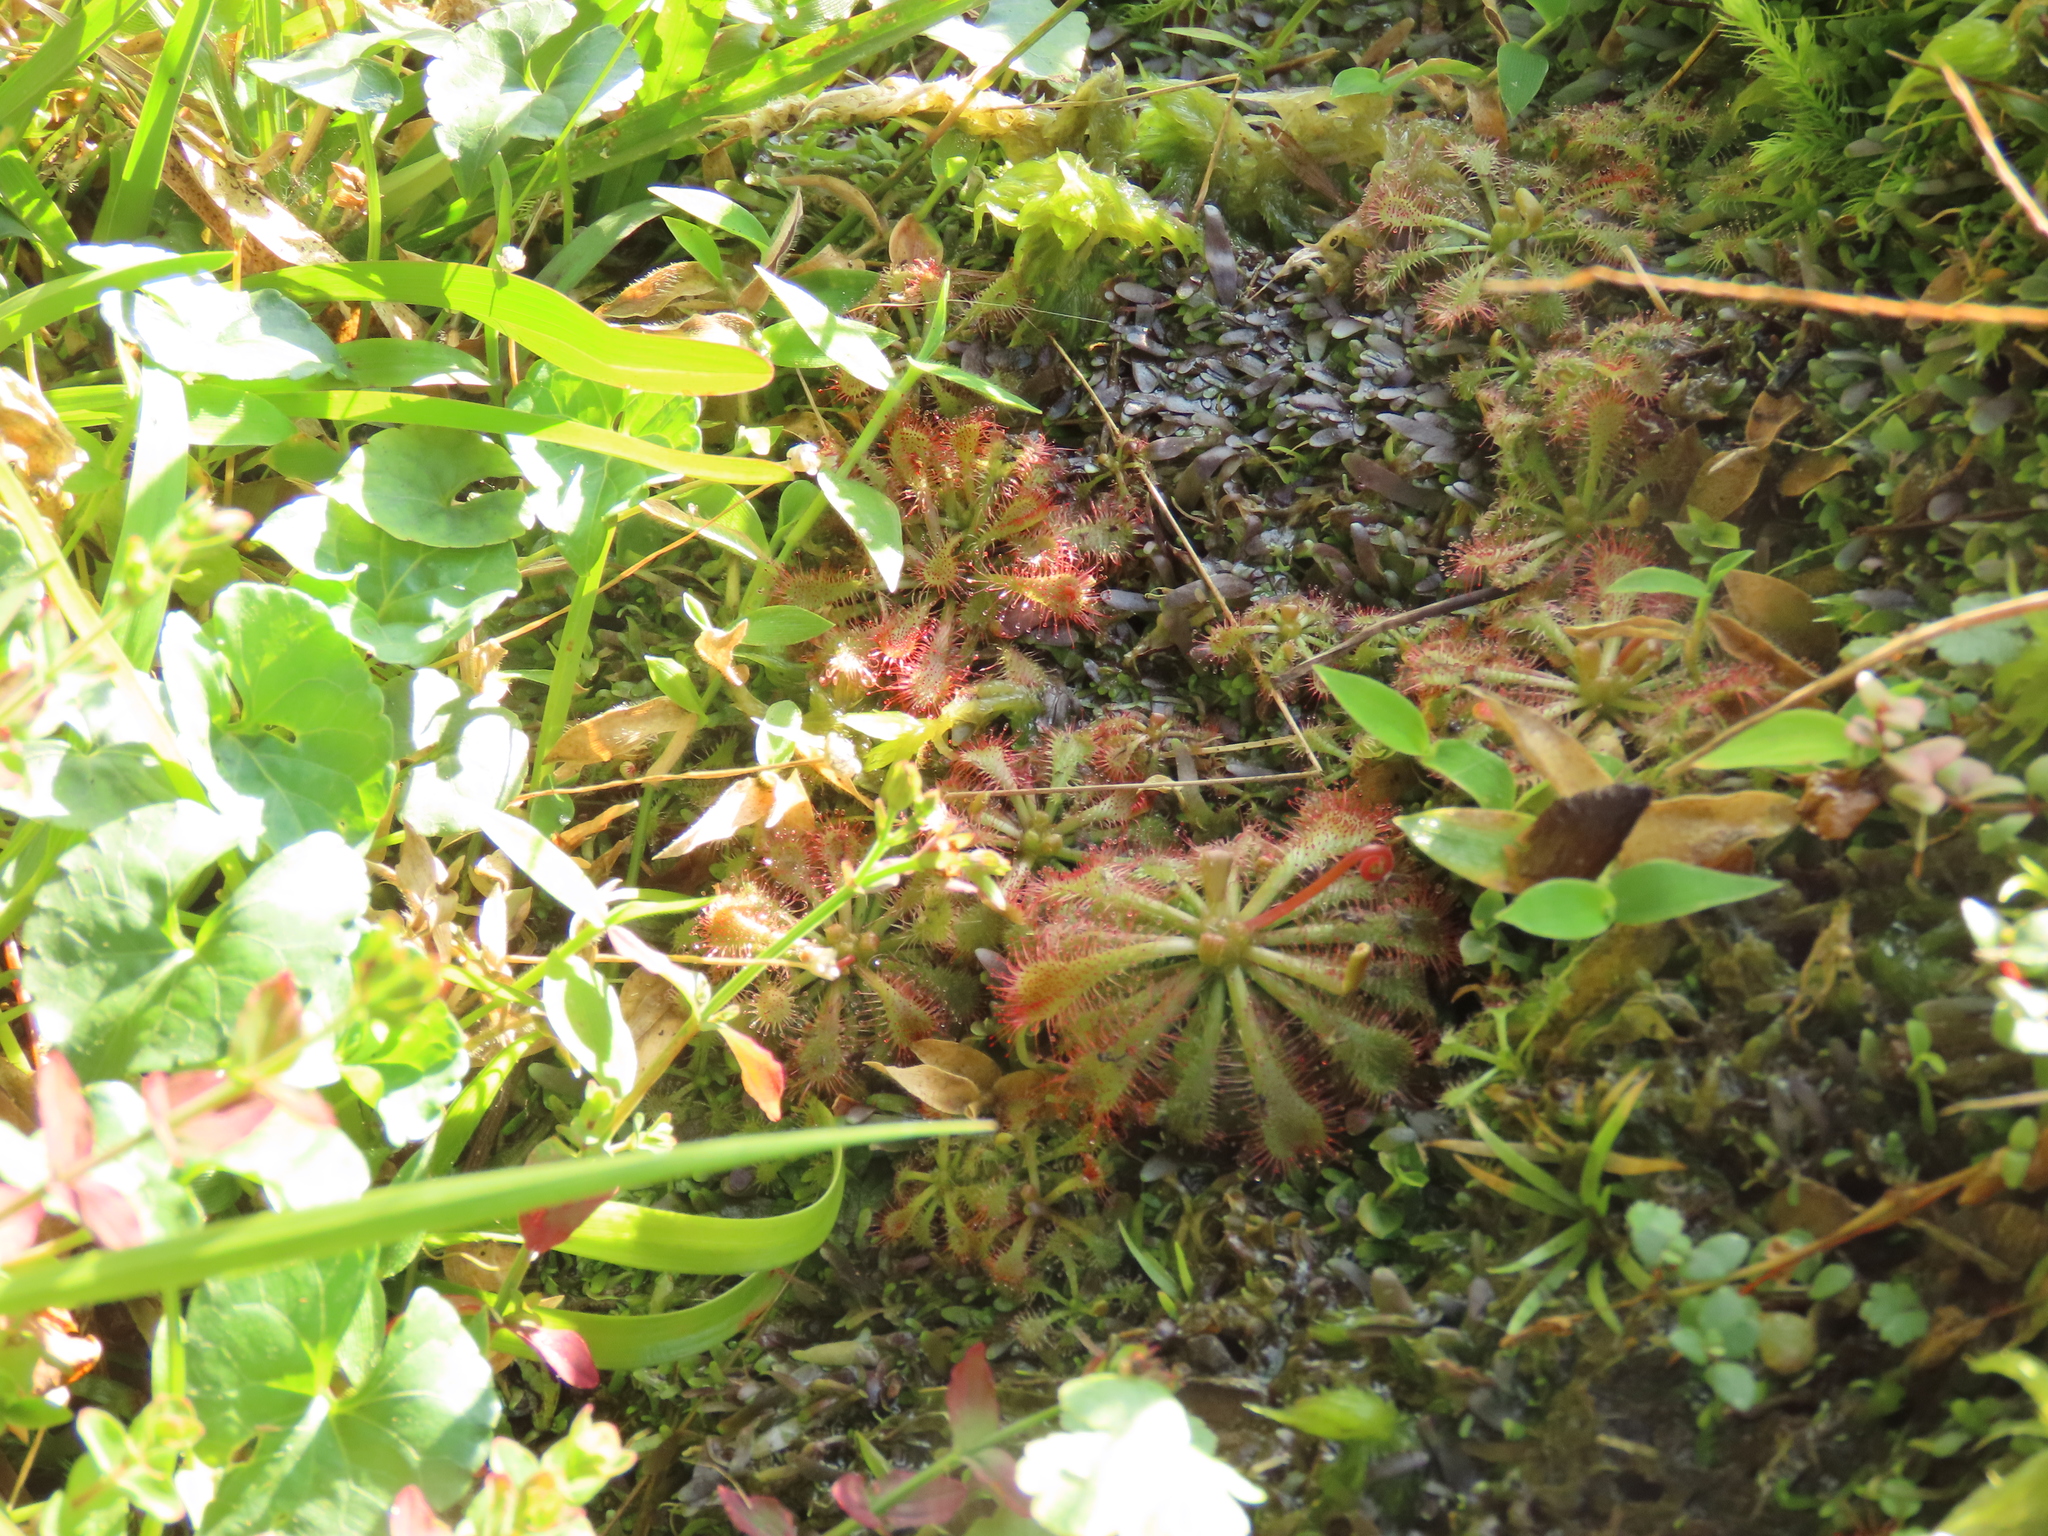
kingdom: Plantae
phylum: Tracheophyta
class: Magnoliopsida
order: Caryophyllales
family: Droseraceae
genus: Drosera
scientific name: Drosera spatulata
